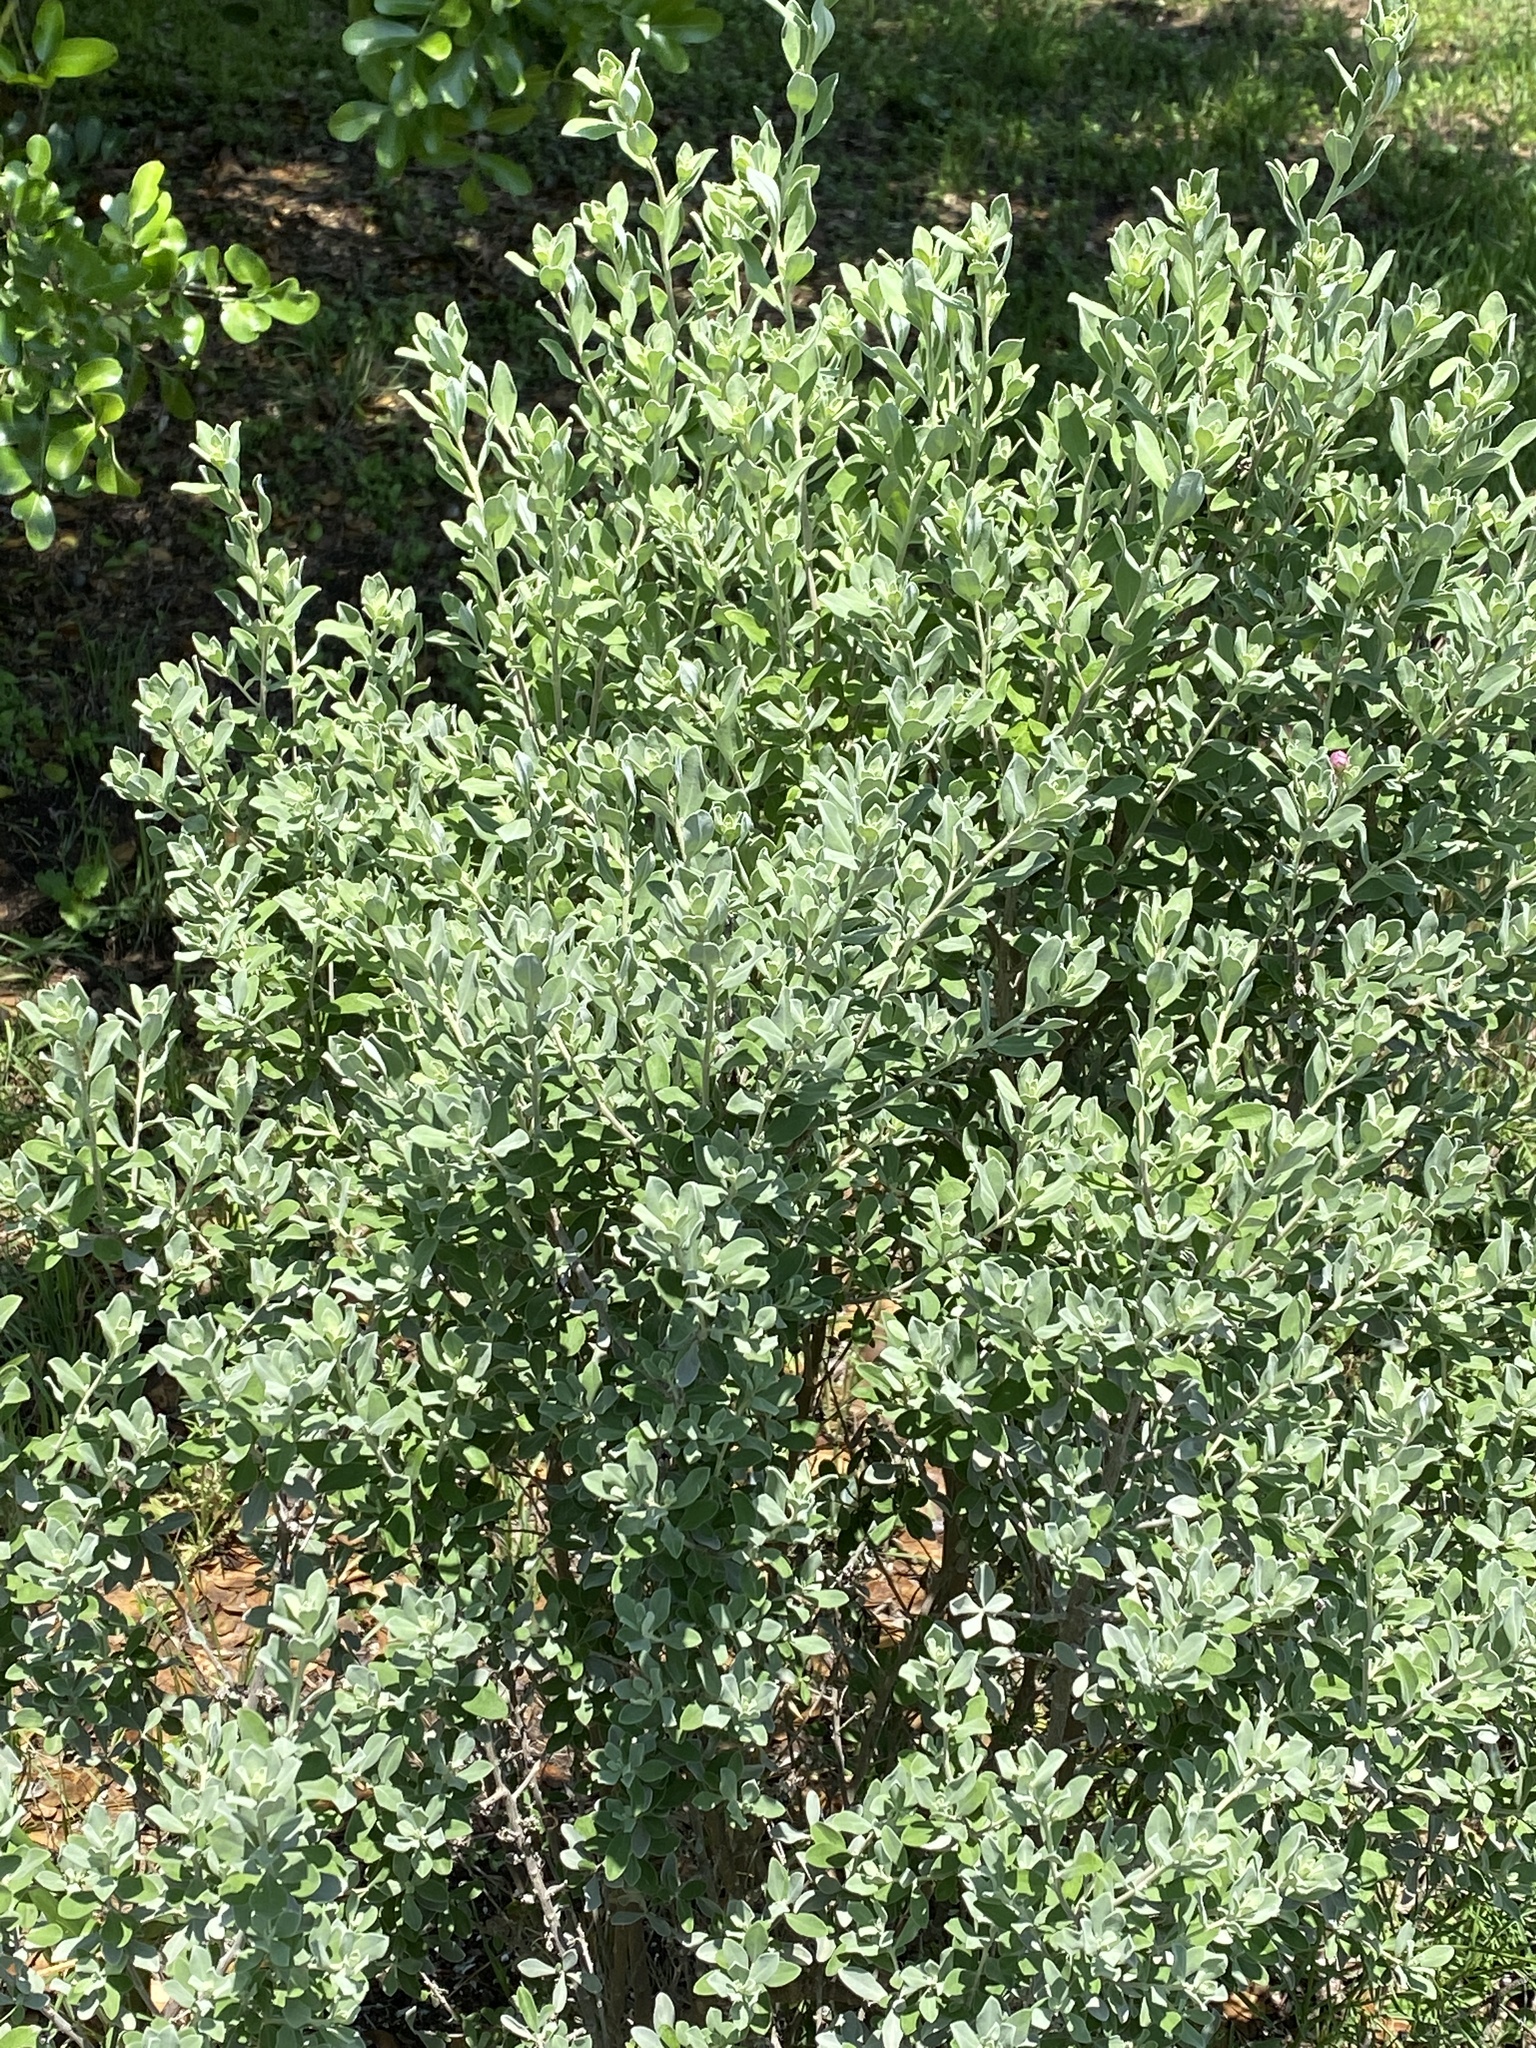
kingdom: Plantae
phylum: Tracheophyta
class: Magnoliopsida
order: Lamiales
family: Scrophulariaceae
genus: Leucophyllum
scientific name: Leucophyllum frutescens
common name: Texas silverleaf
